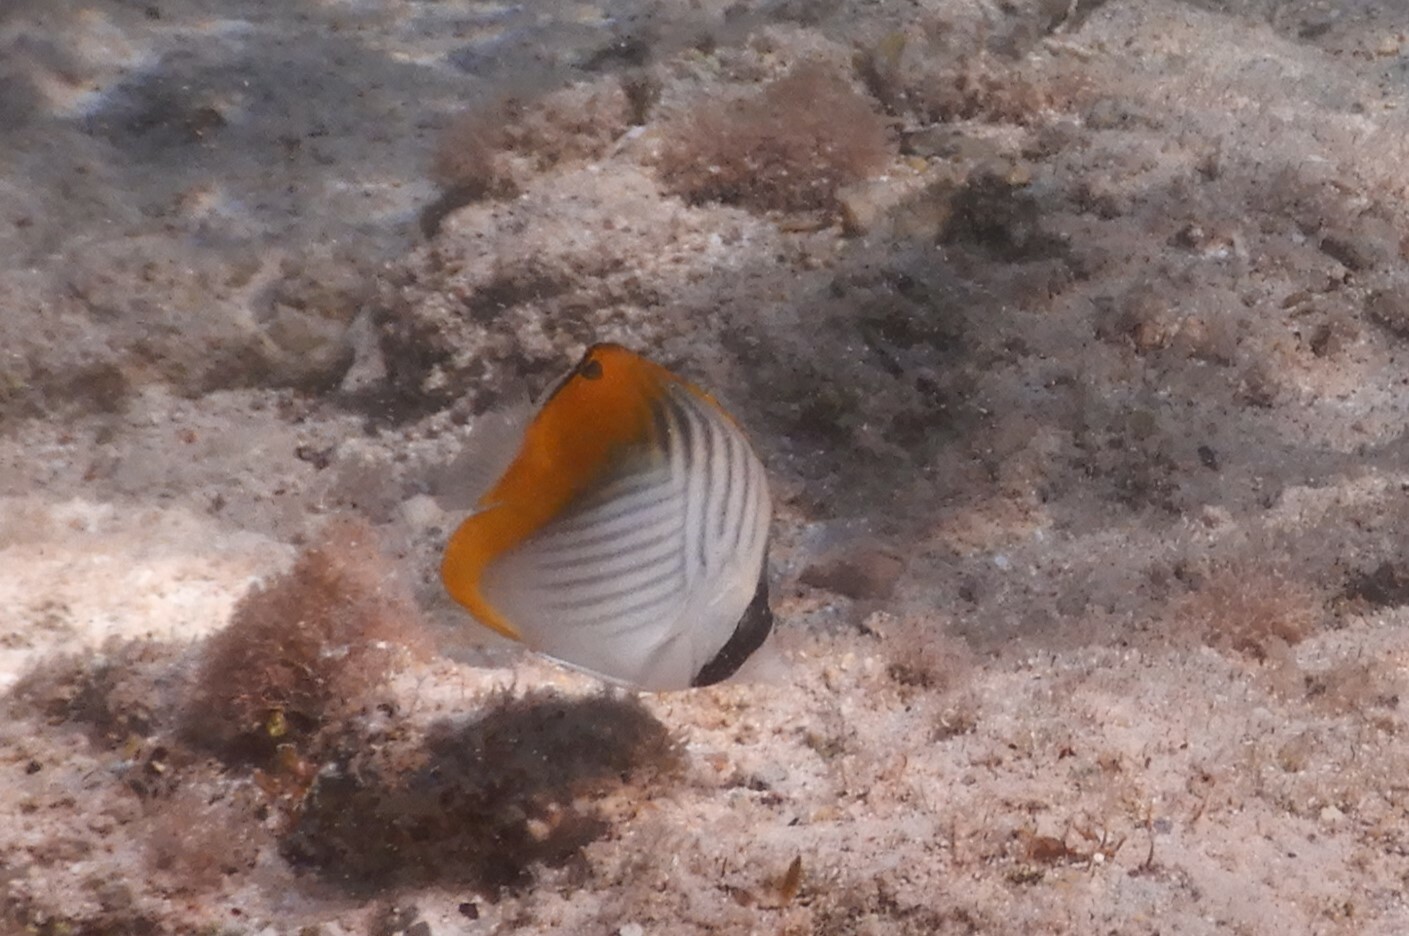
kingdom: Animalia
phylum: Chordata
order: Perciformes
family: Chaetodontidae
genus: Chaetodon
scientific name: Chaetodon auriga
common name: Threadfin butterflyfish
